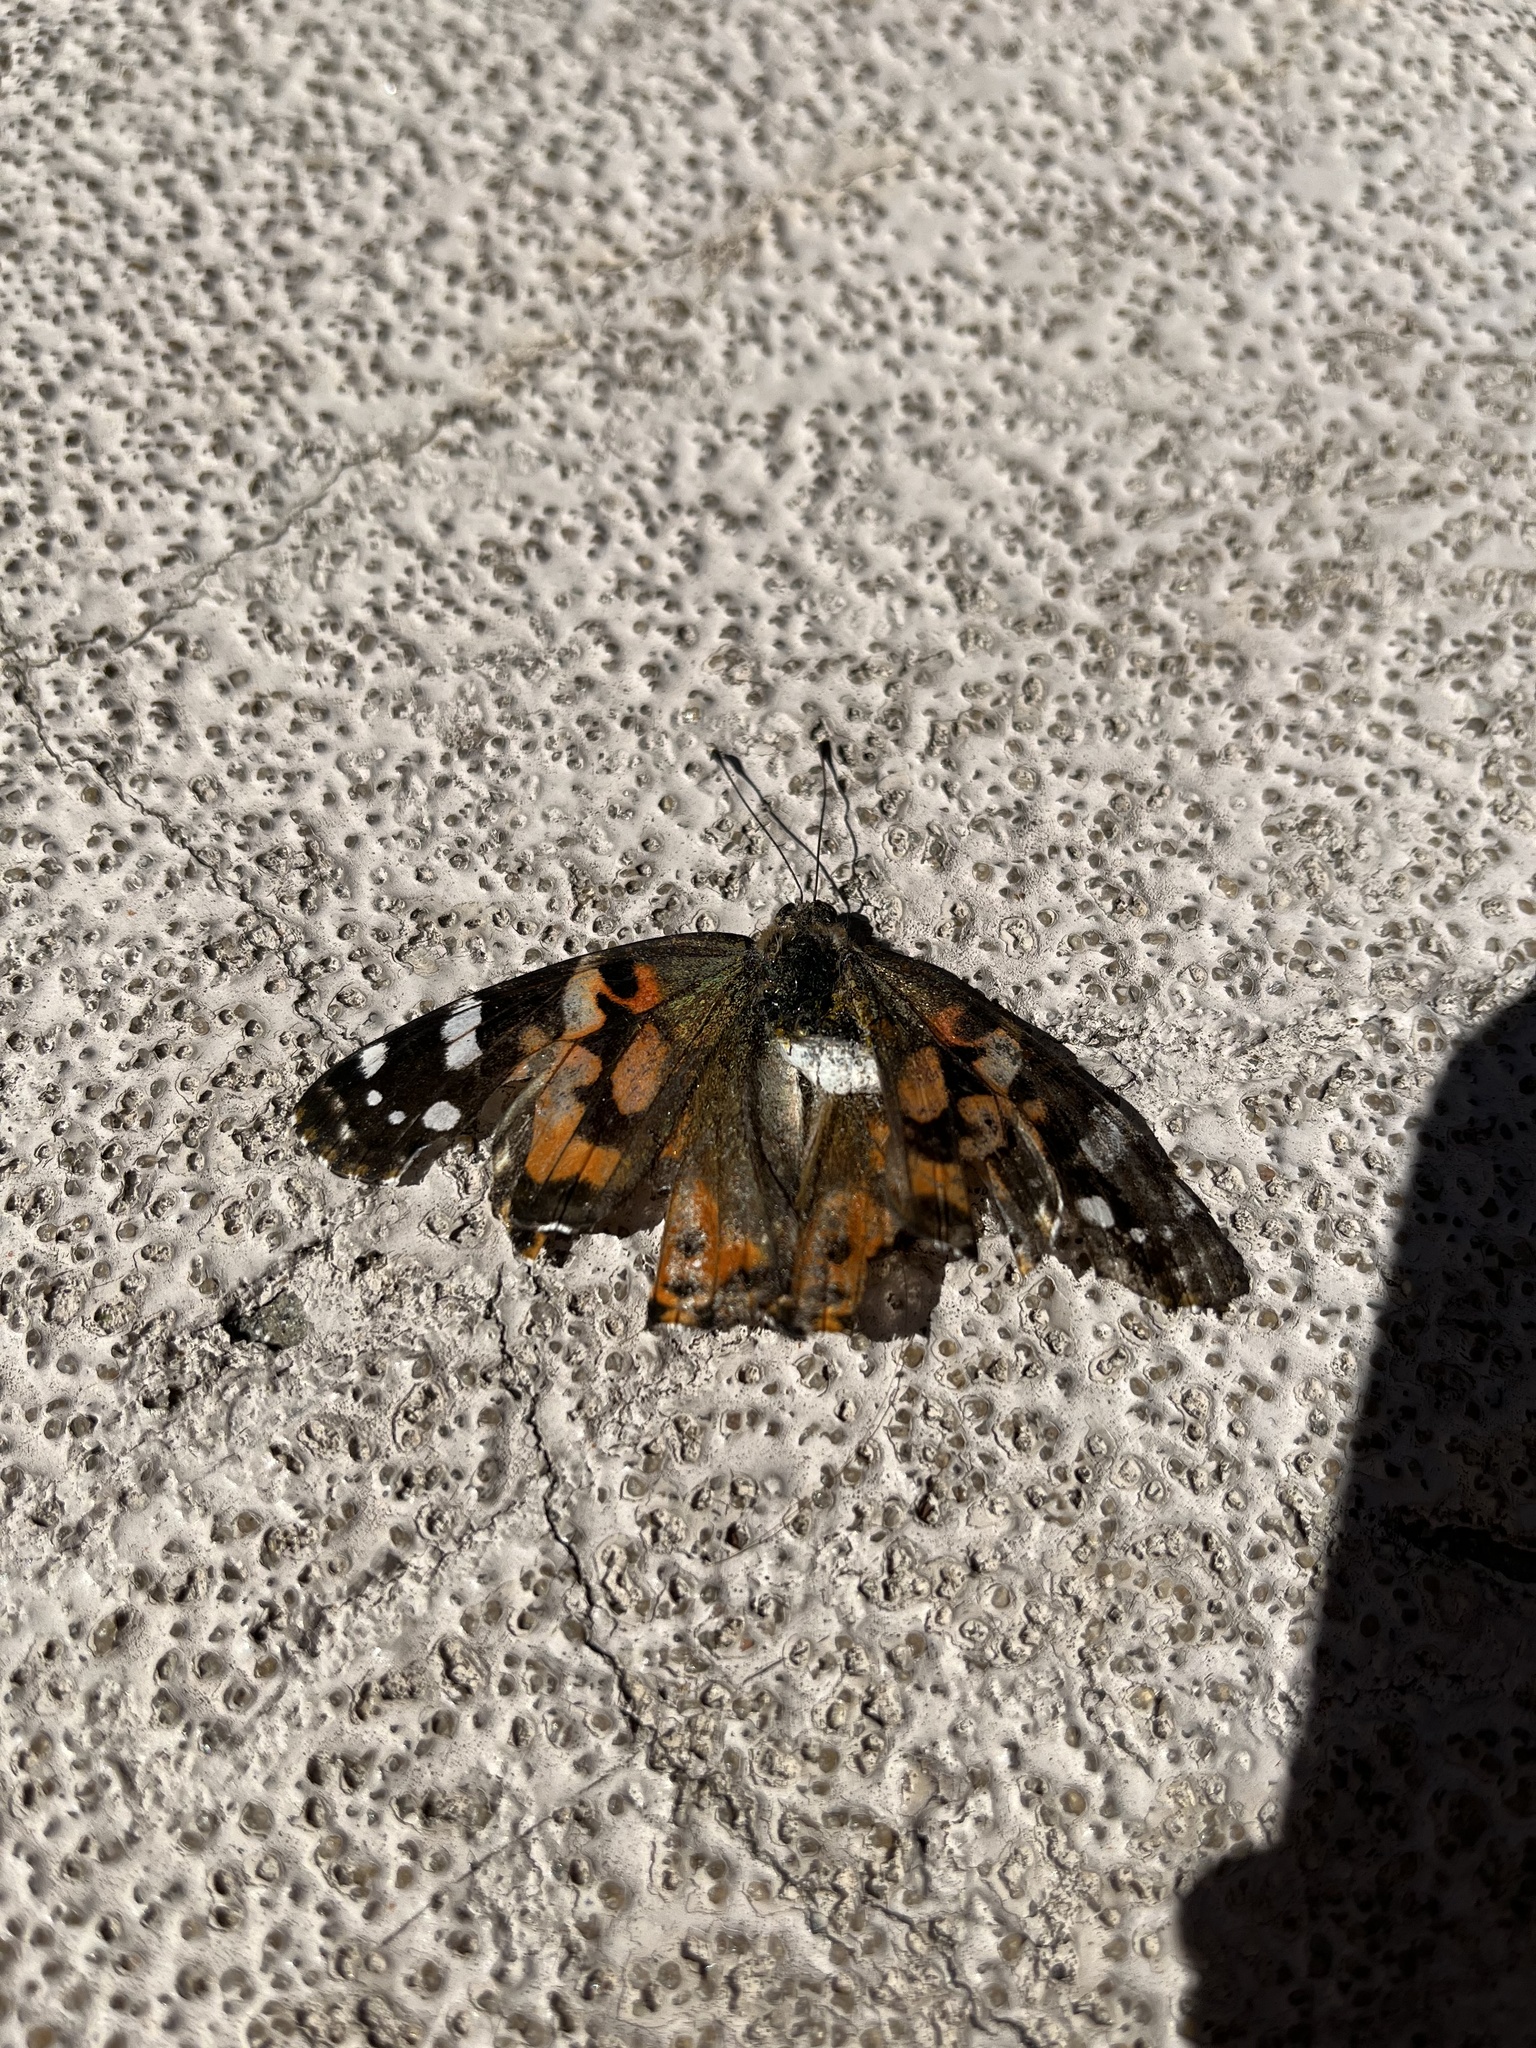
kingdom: Animalia
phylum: Arthropoda
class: Insecta
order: Lepidoptera
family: Nymphalidae
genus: Vanessa
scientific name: Vanessa cardui
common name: Painted lady
